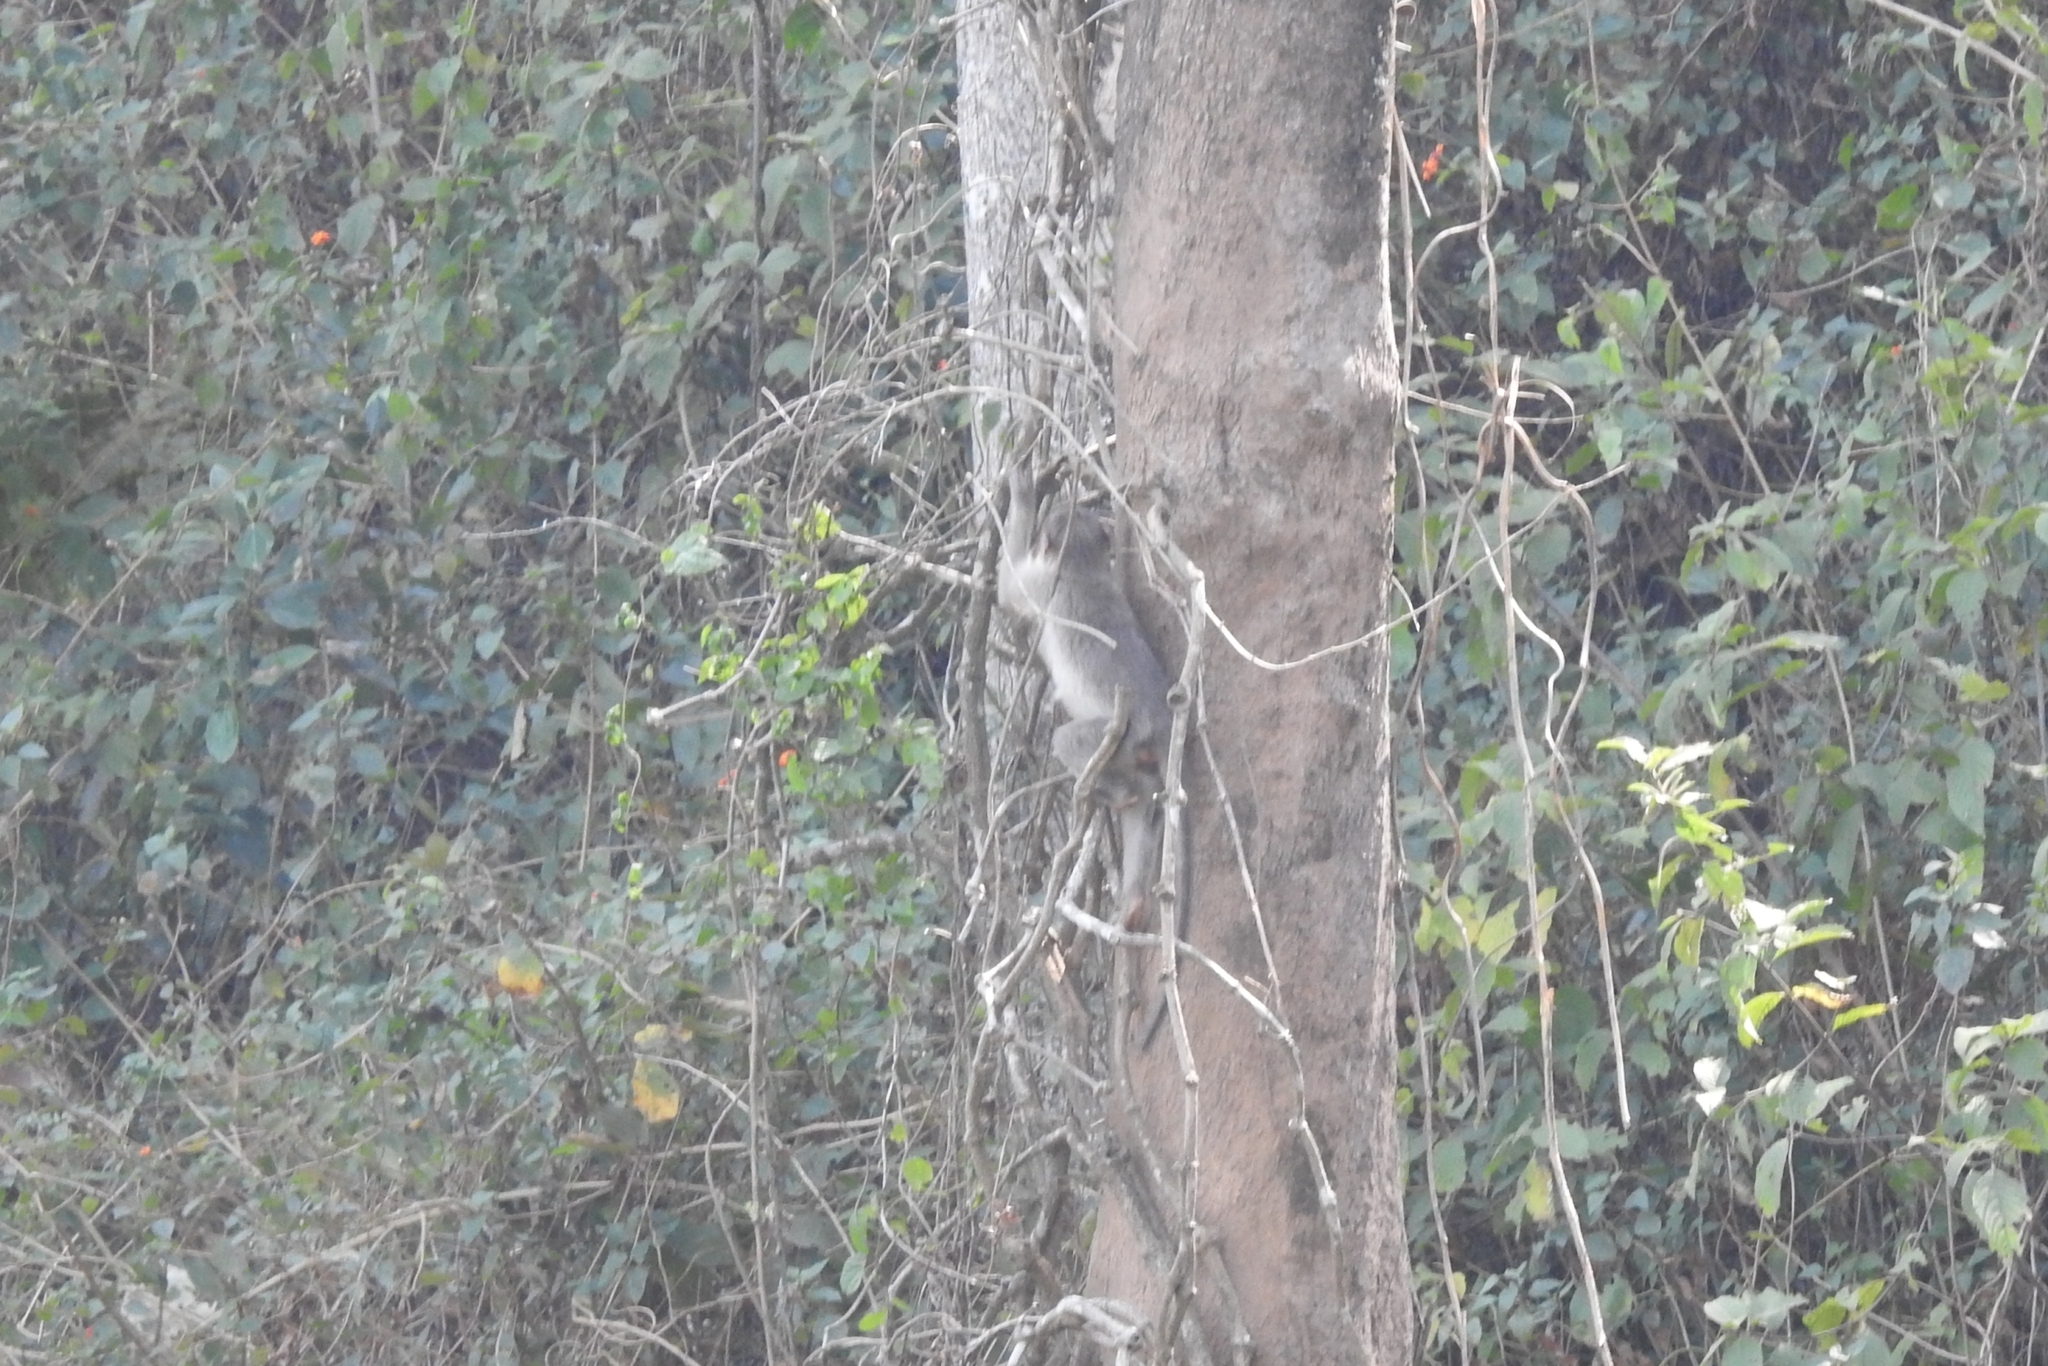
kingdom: Animalia
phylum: Chordata
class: Mammalia
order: Primates
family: Cercopithecidae
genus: Macaca
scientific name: Macaca radiata
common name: Bonnet macaque
